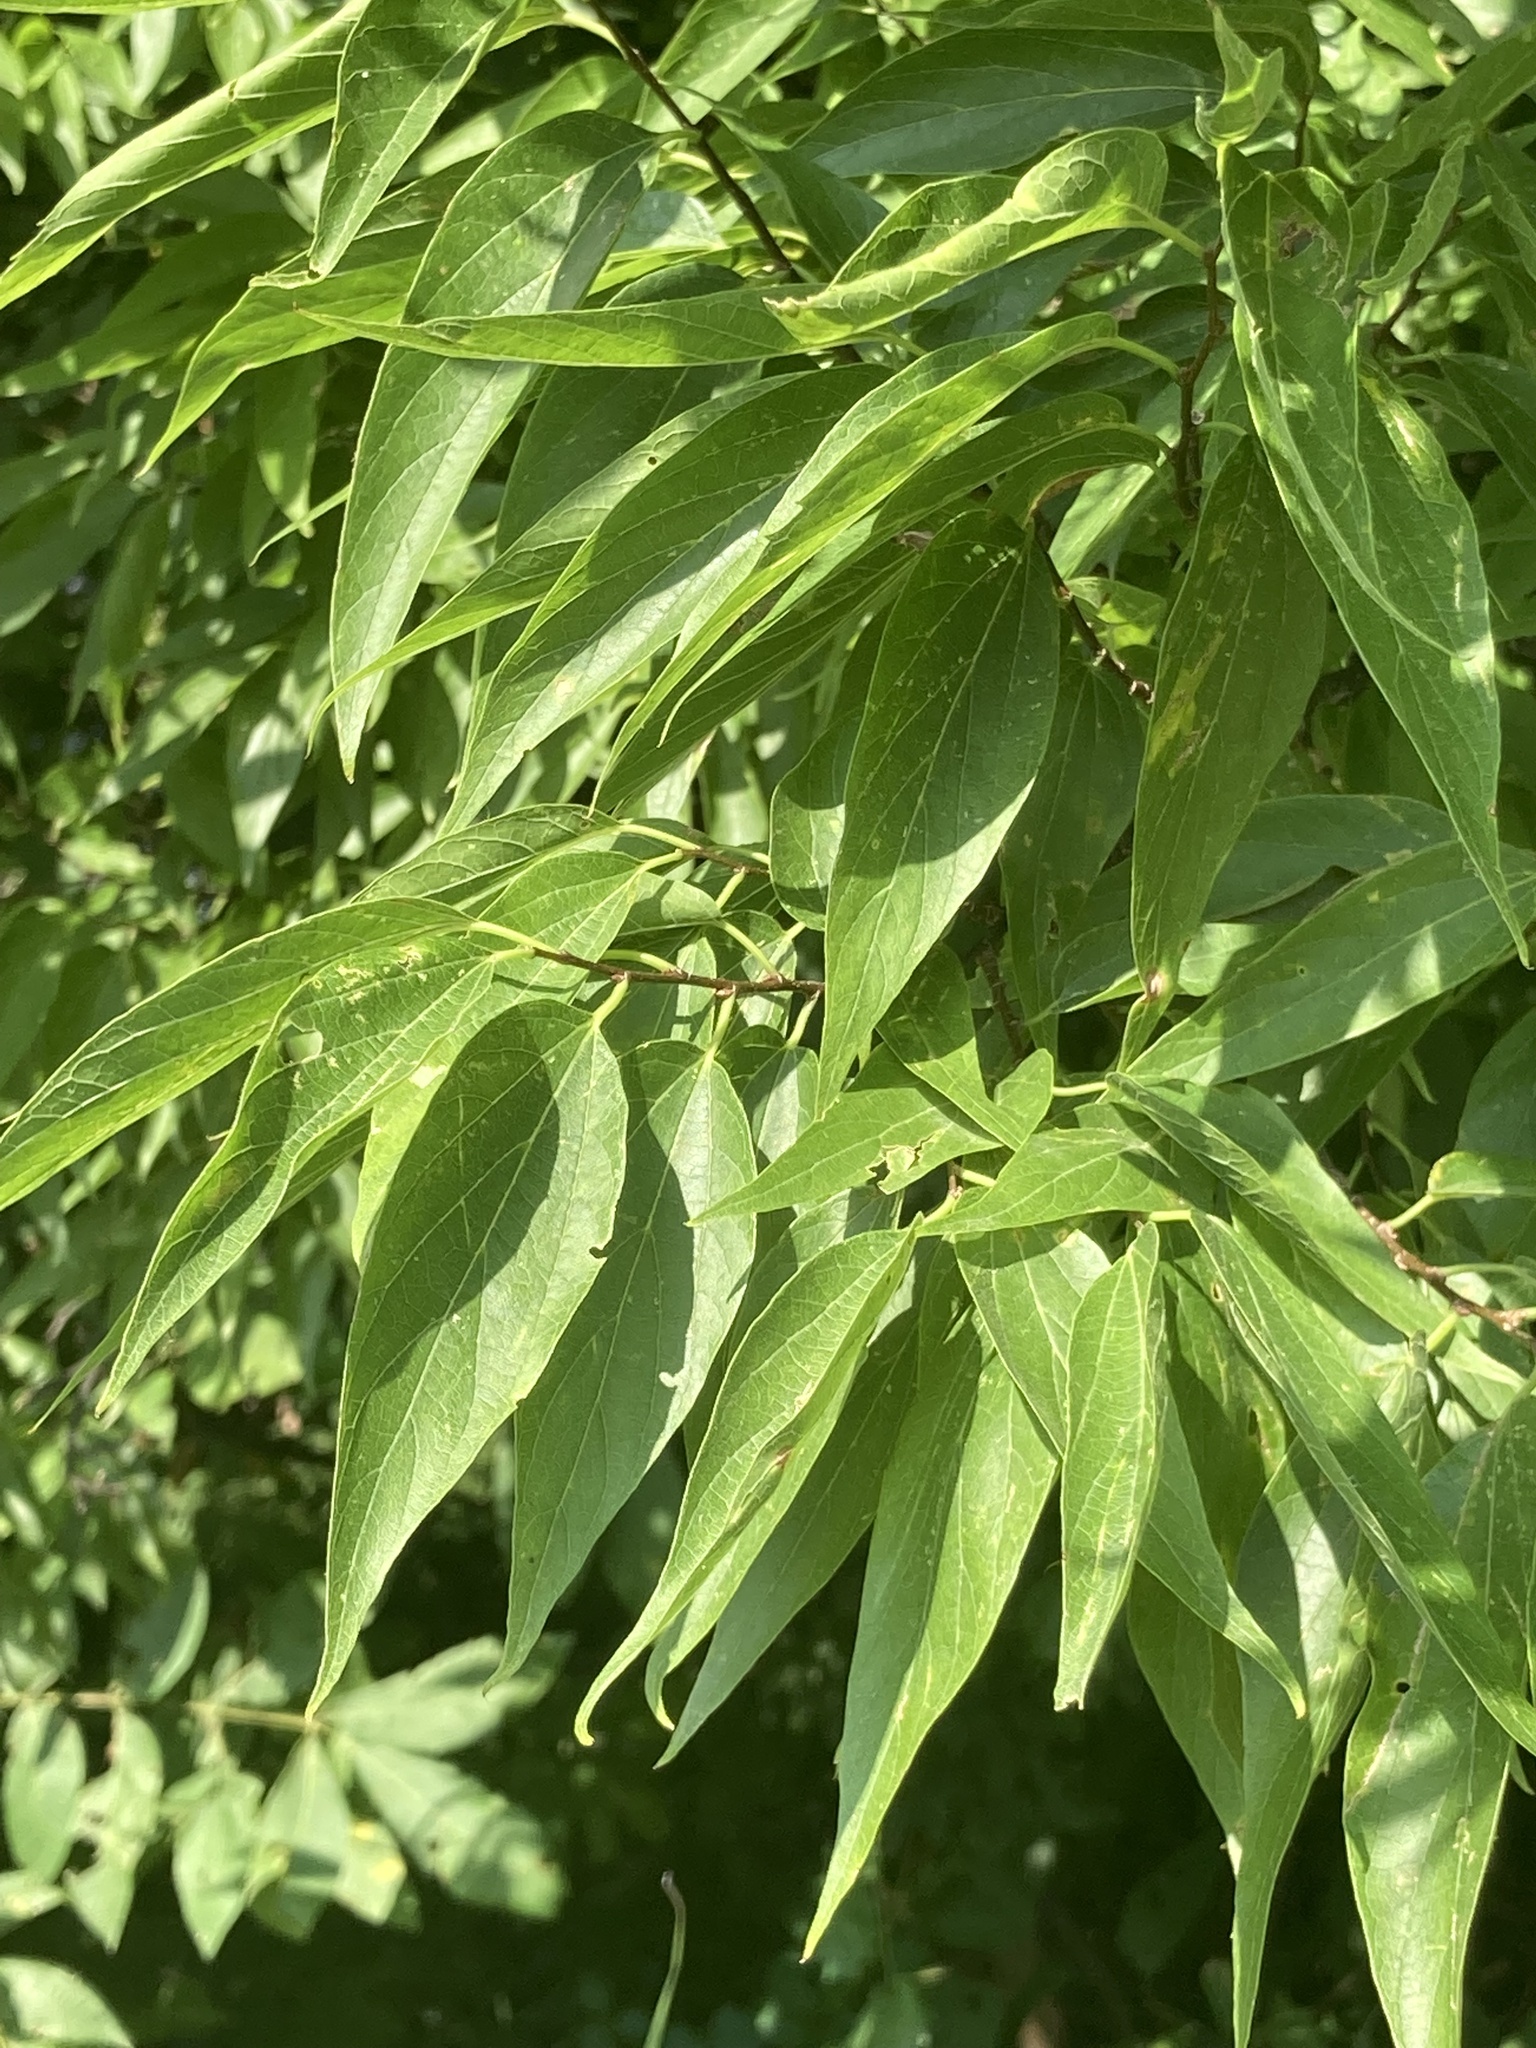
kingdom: Plantae
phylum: Tracheophyta
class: Magnoliopsida
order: Rosales
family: Cannabaceae
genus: Celtis
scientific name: Celtis laevigata
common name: Sugarberry
